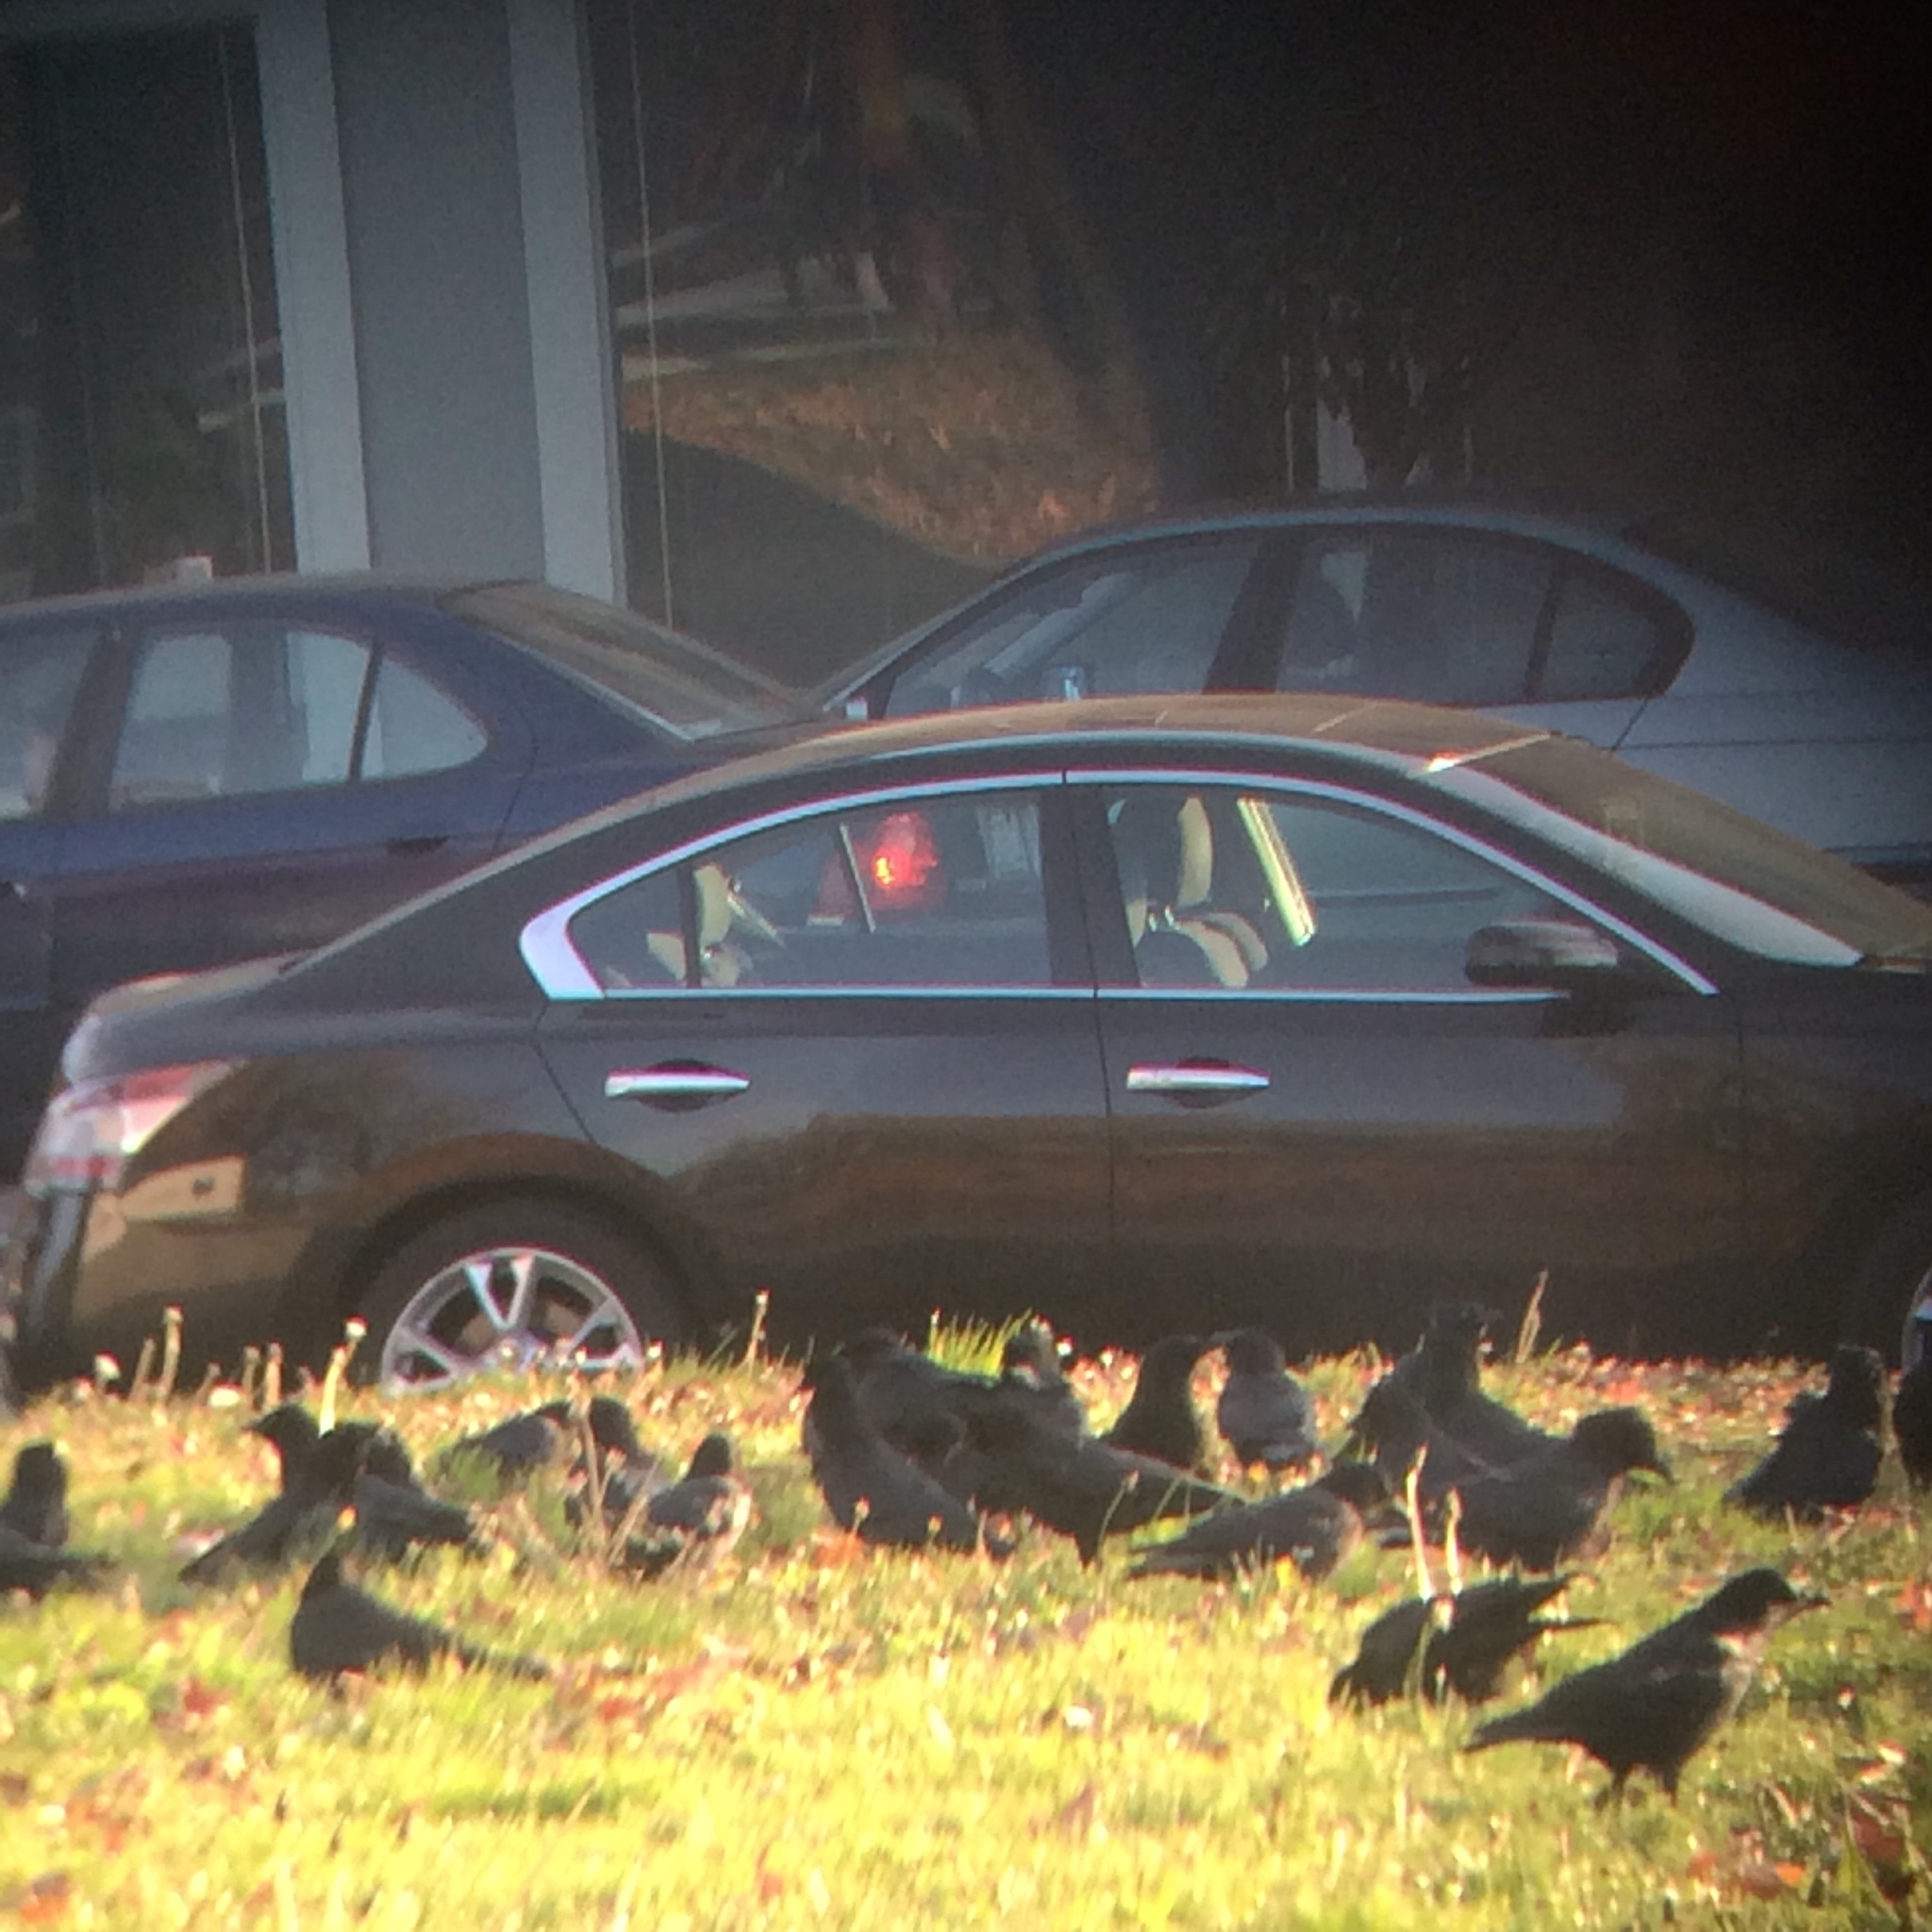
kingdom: Animalia
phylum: Chordata
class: Aves
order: Passeriformes
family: Corvidae
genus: Corvus
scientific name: Corvus brachyrhynchos
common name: American crow
